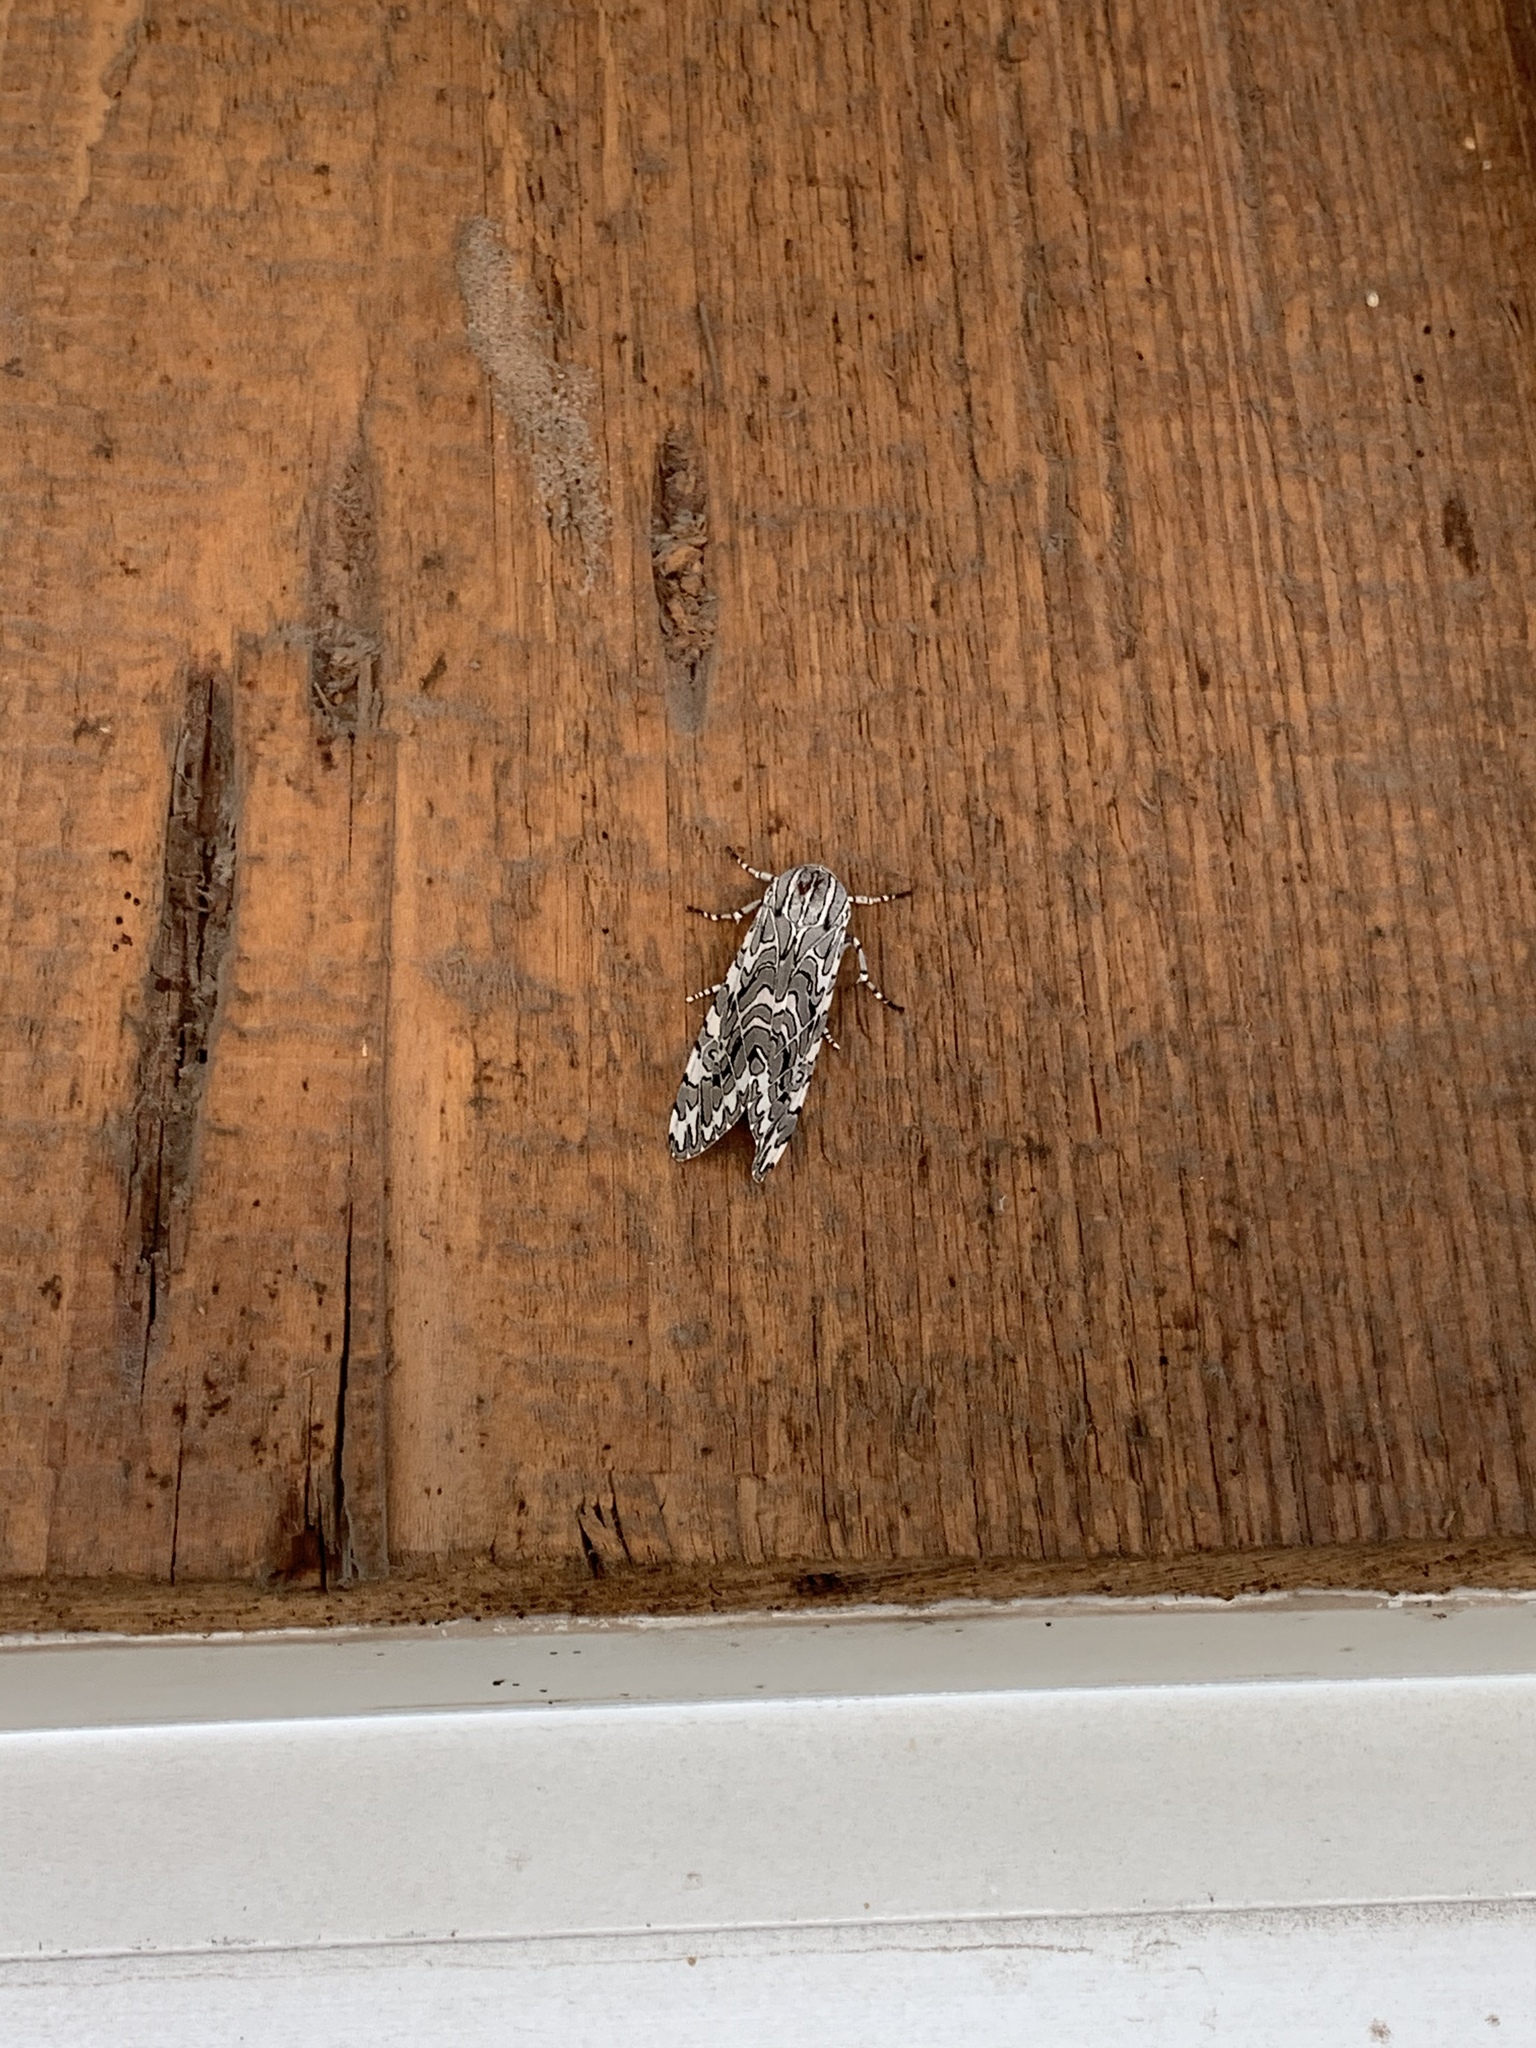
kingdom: Animalia
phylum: Arthropoda
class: Insecta
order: Lepidoptera
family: Erebidae
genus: Arachnis
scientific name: Arachnis picta
